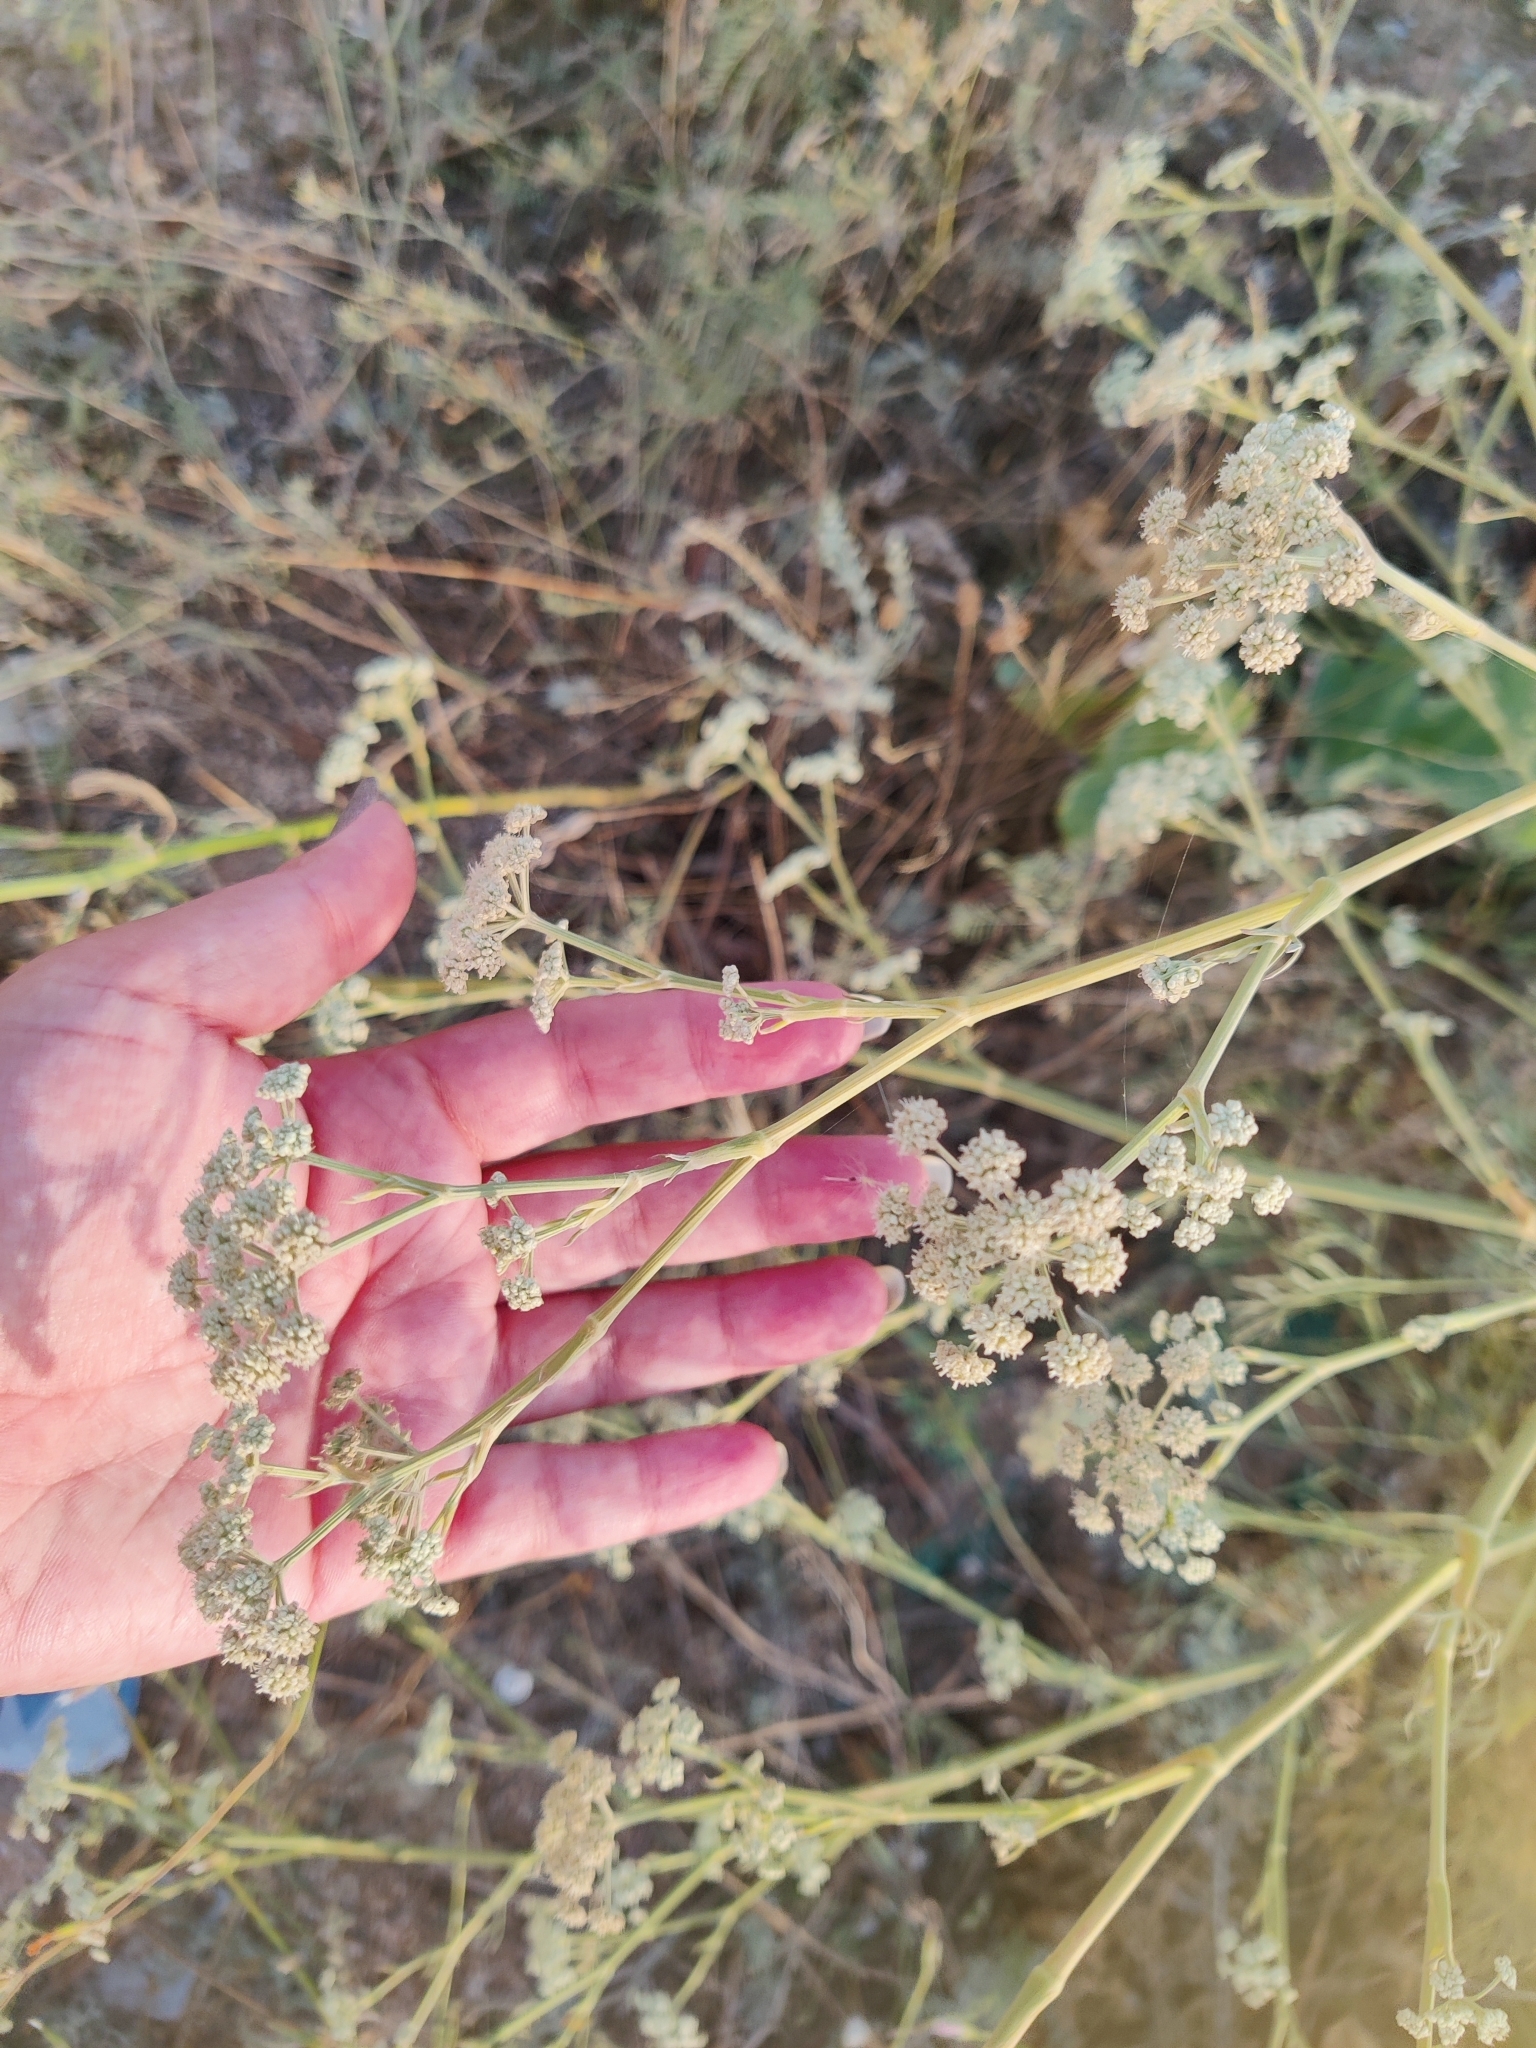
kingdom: Plantae
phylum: Tracheophyta
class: Magnoliopsida
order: Apiales
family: Apiaceae
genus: Seseli
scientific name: Seseli arenarium
